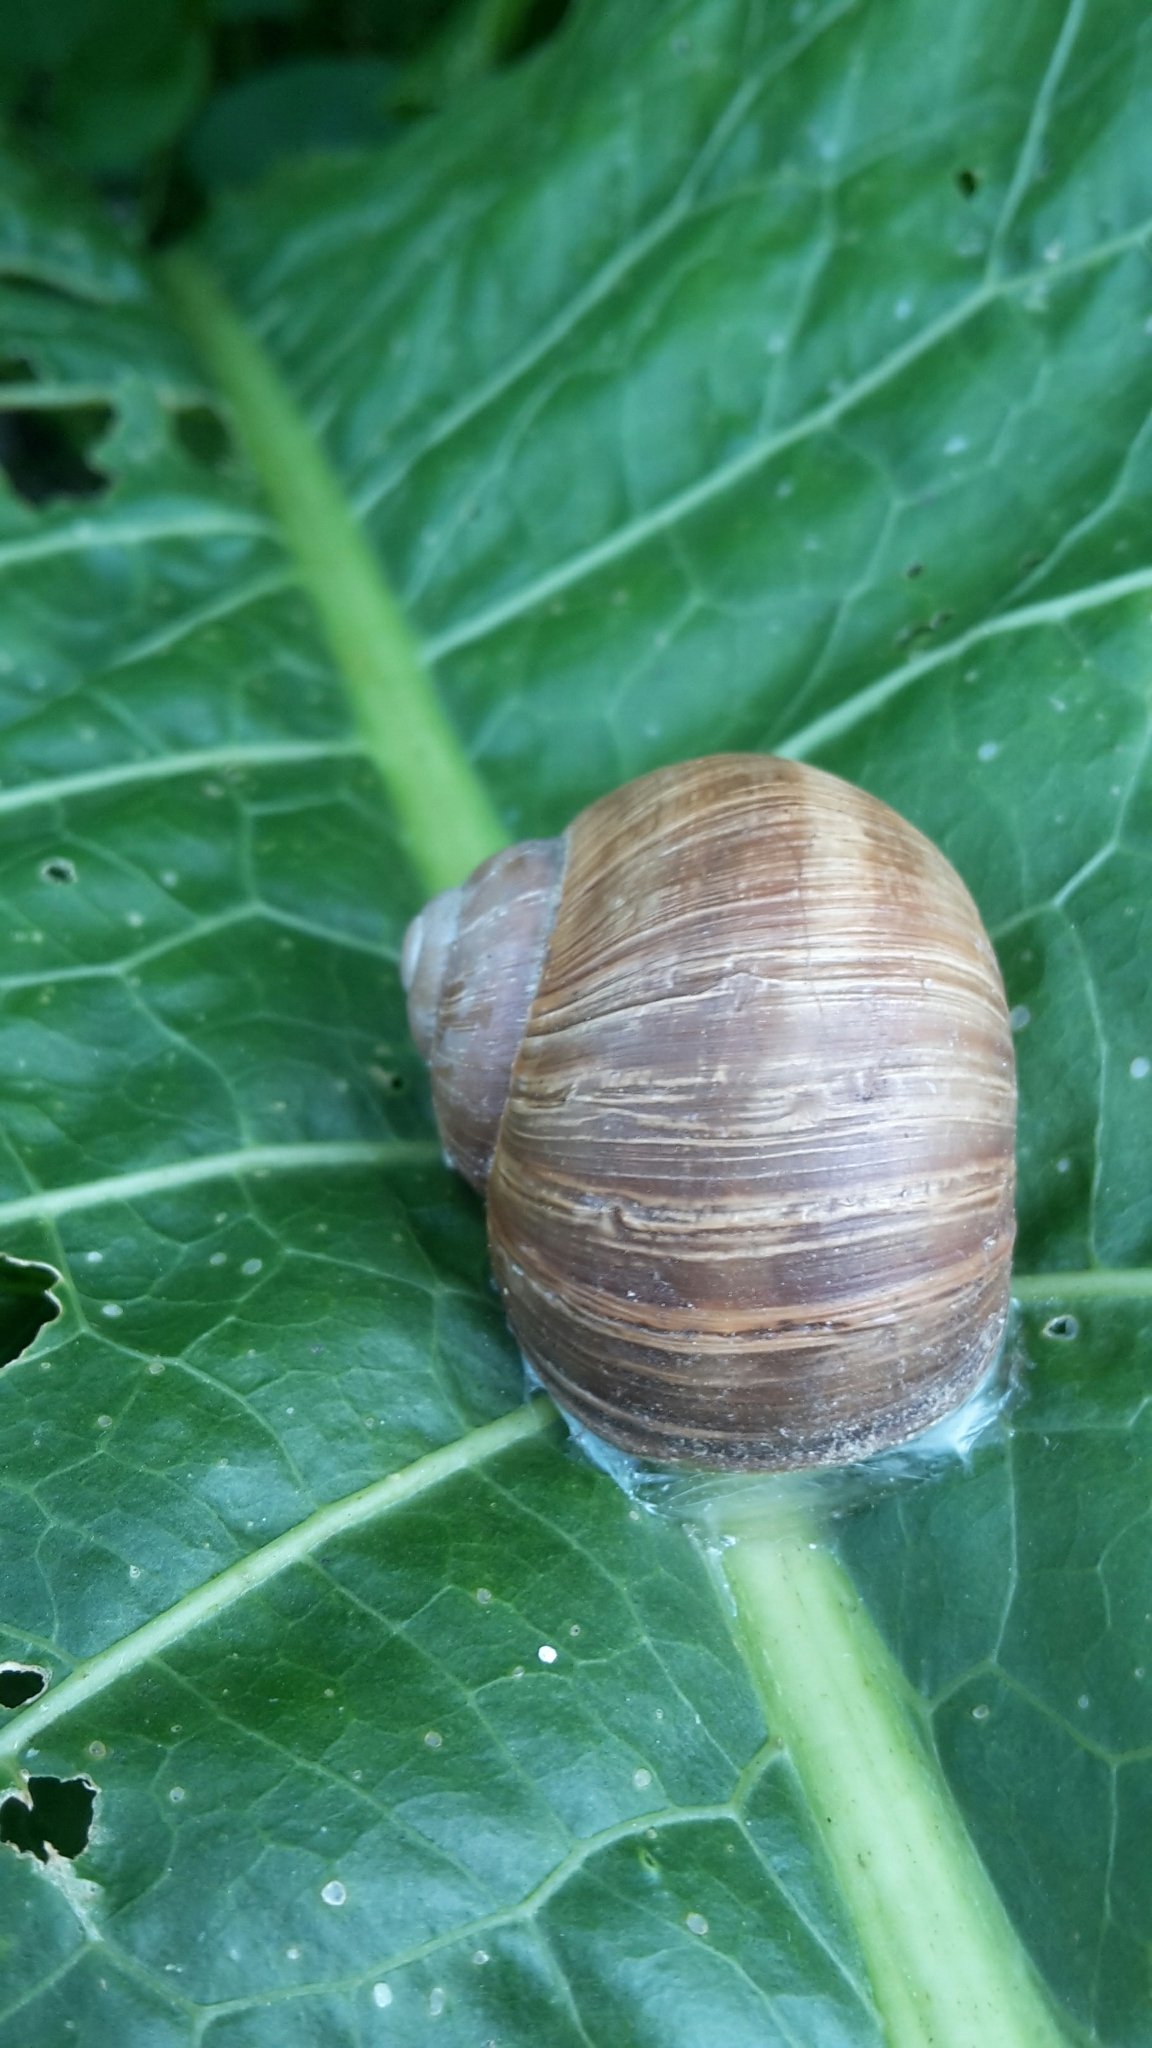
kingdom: Animalia
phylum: Mollusca
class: Gastropoda
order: Stylommatophora
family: Helicidae
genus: Helix
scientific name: Helix pomatia
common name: Roman snail
